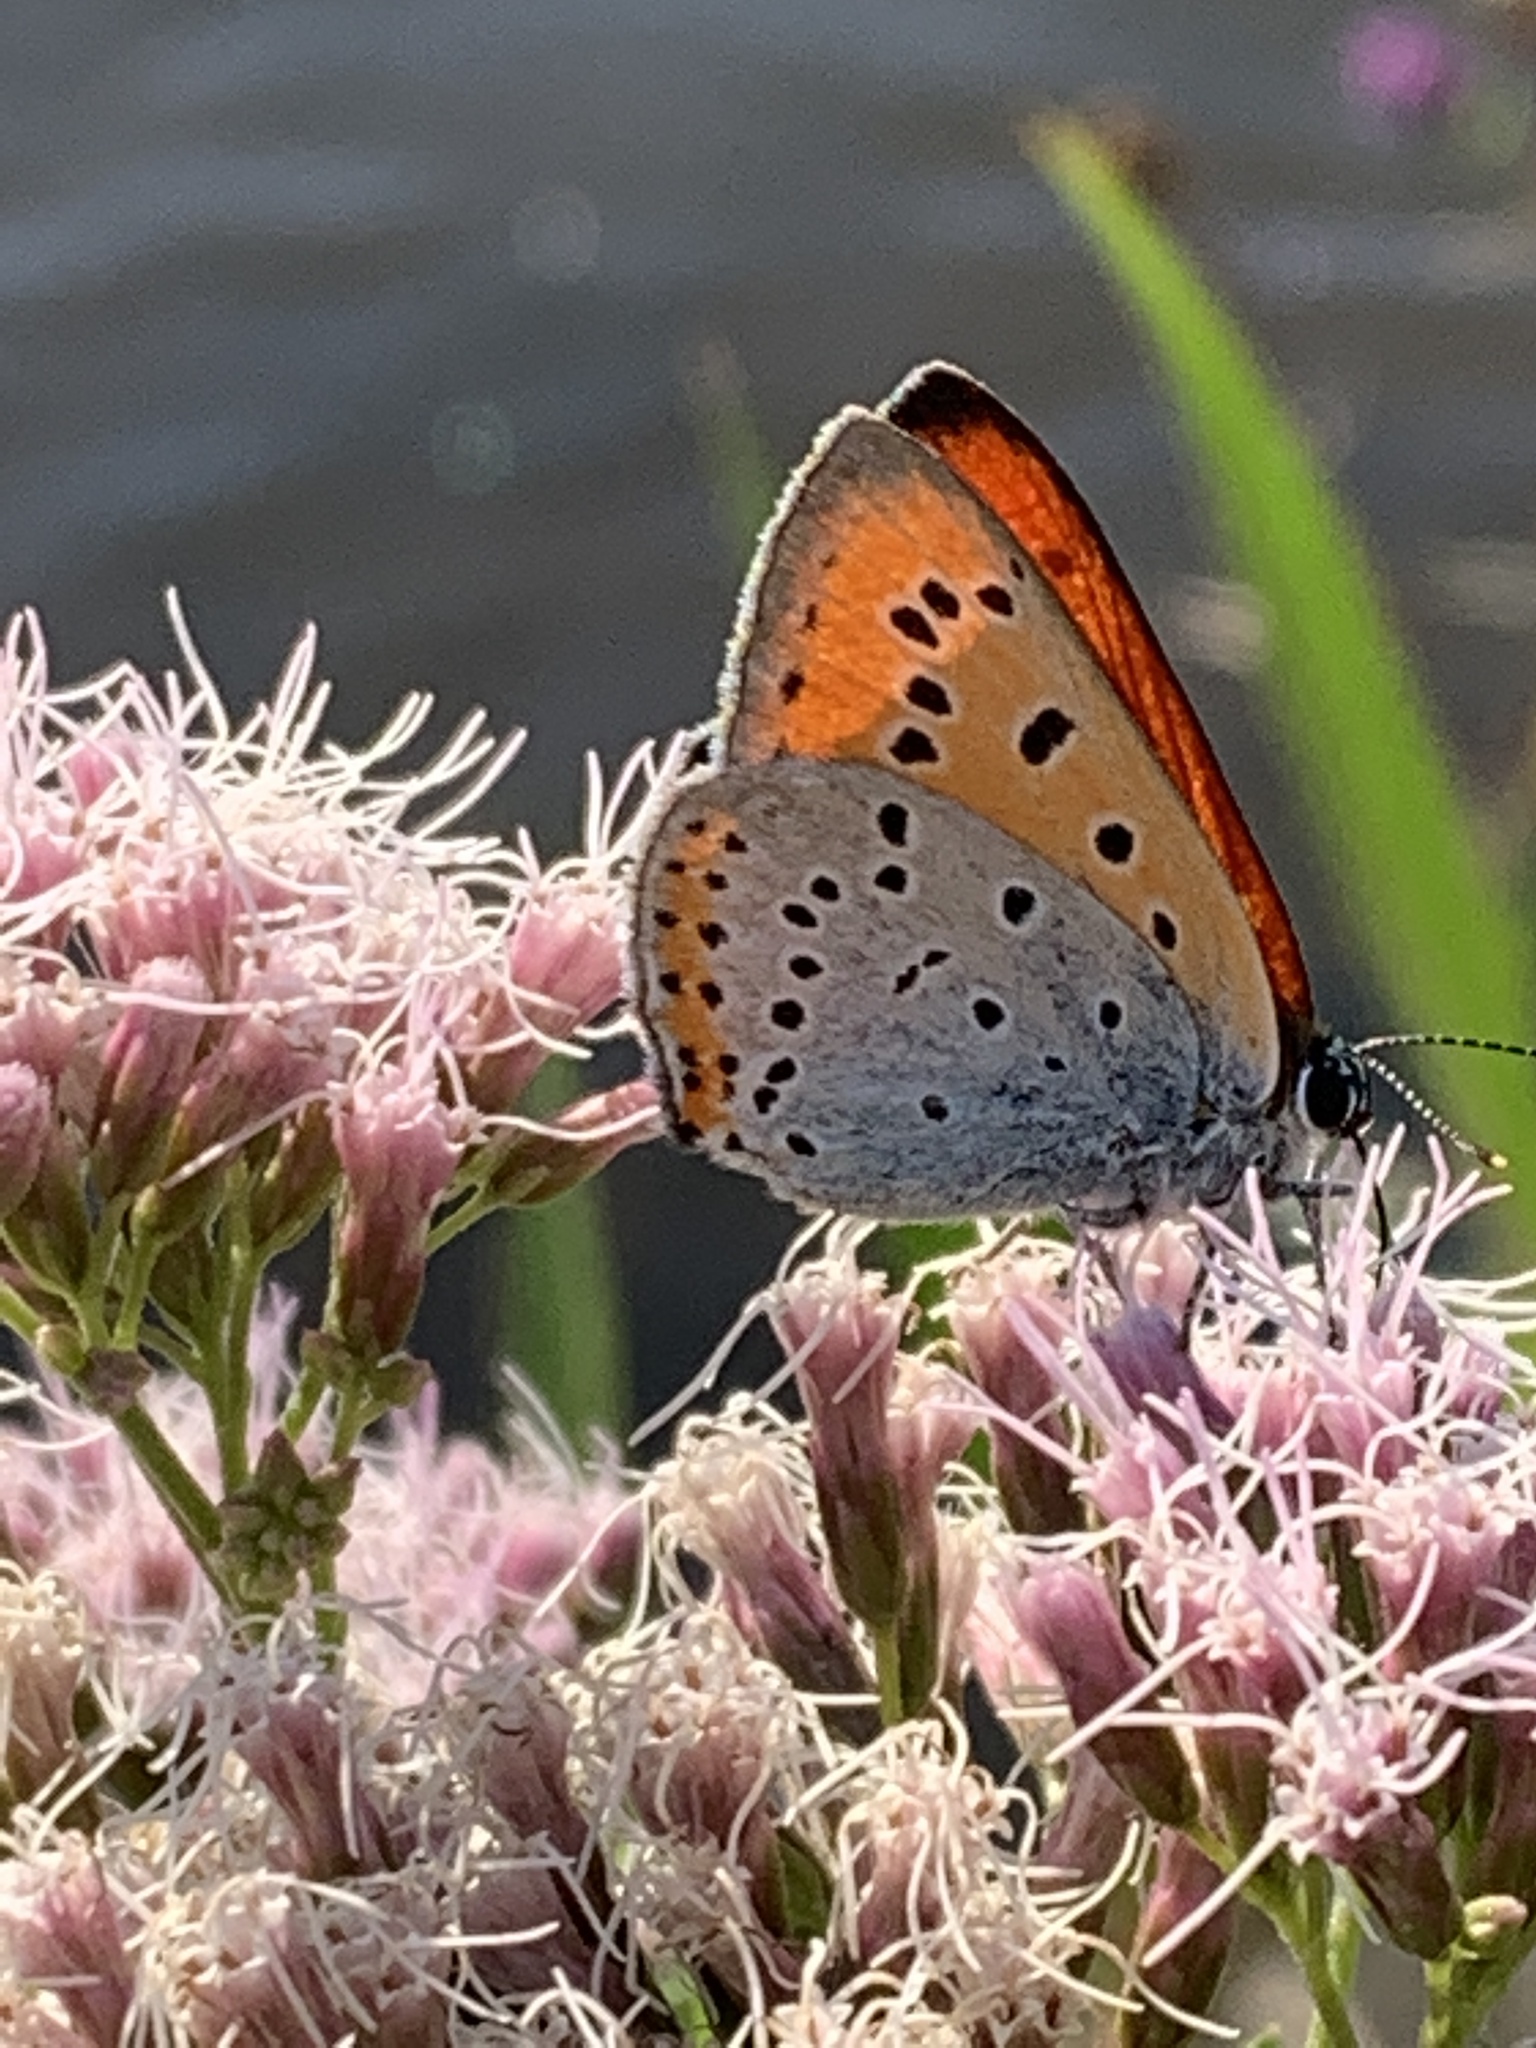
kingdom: Animalia
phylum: Arthropoda
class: Insecta
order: Lepidoptera
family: Lycaenidae
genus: Lycaena
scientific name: Lycaena dispar
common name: Large copper
